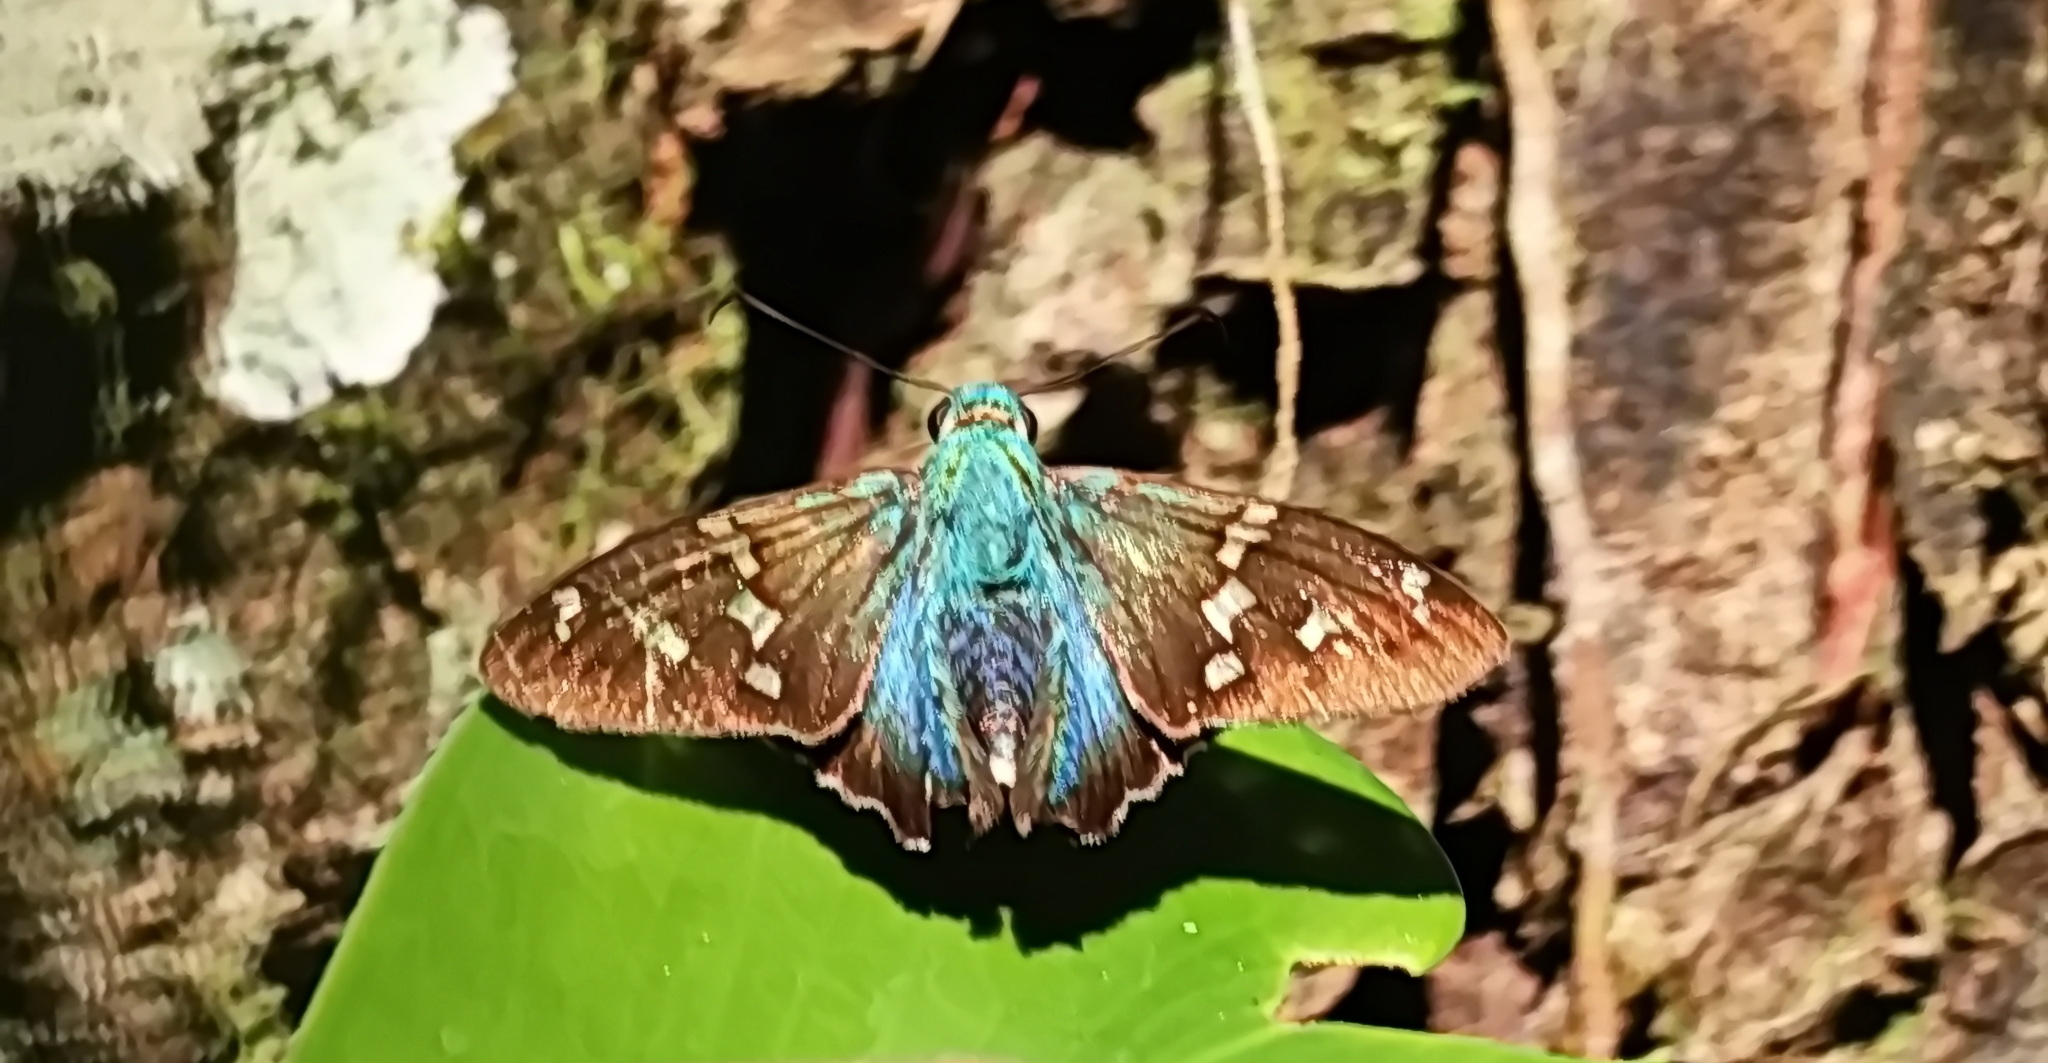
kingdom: Animalia
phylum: Arthropoda
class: Insecta
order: Lepidoptera
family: Hesperiidae
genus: Urbanus
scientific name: Urbanus esmeraldus
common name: Esmeralda longtail
